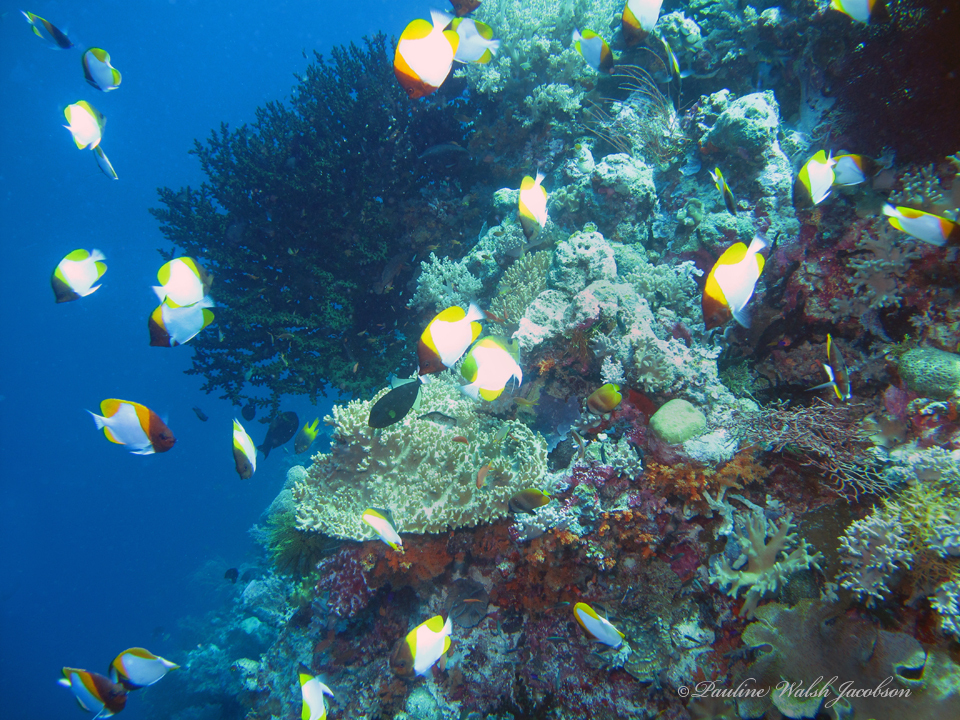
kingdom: Animalia
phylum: Chordata
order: Perciformes
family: Chaetodontidae
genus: Hemitaurichthys
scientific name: Hemitaurichthys polylepis
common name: Brushytoothed butterflyfish
